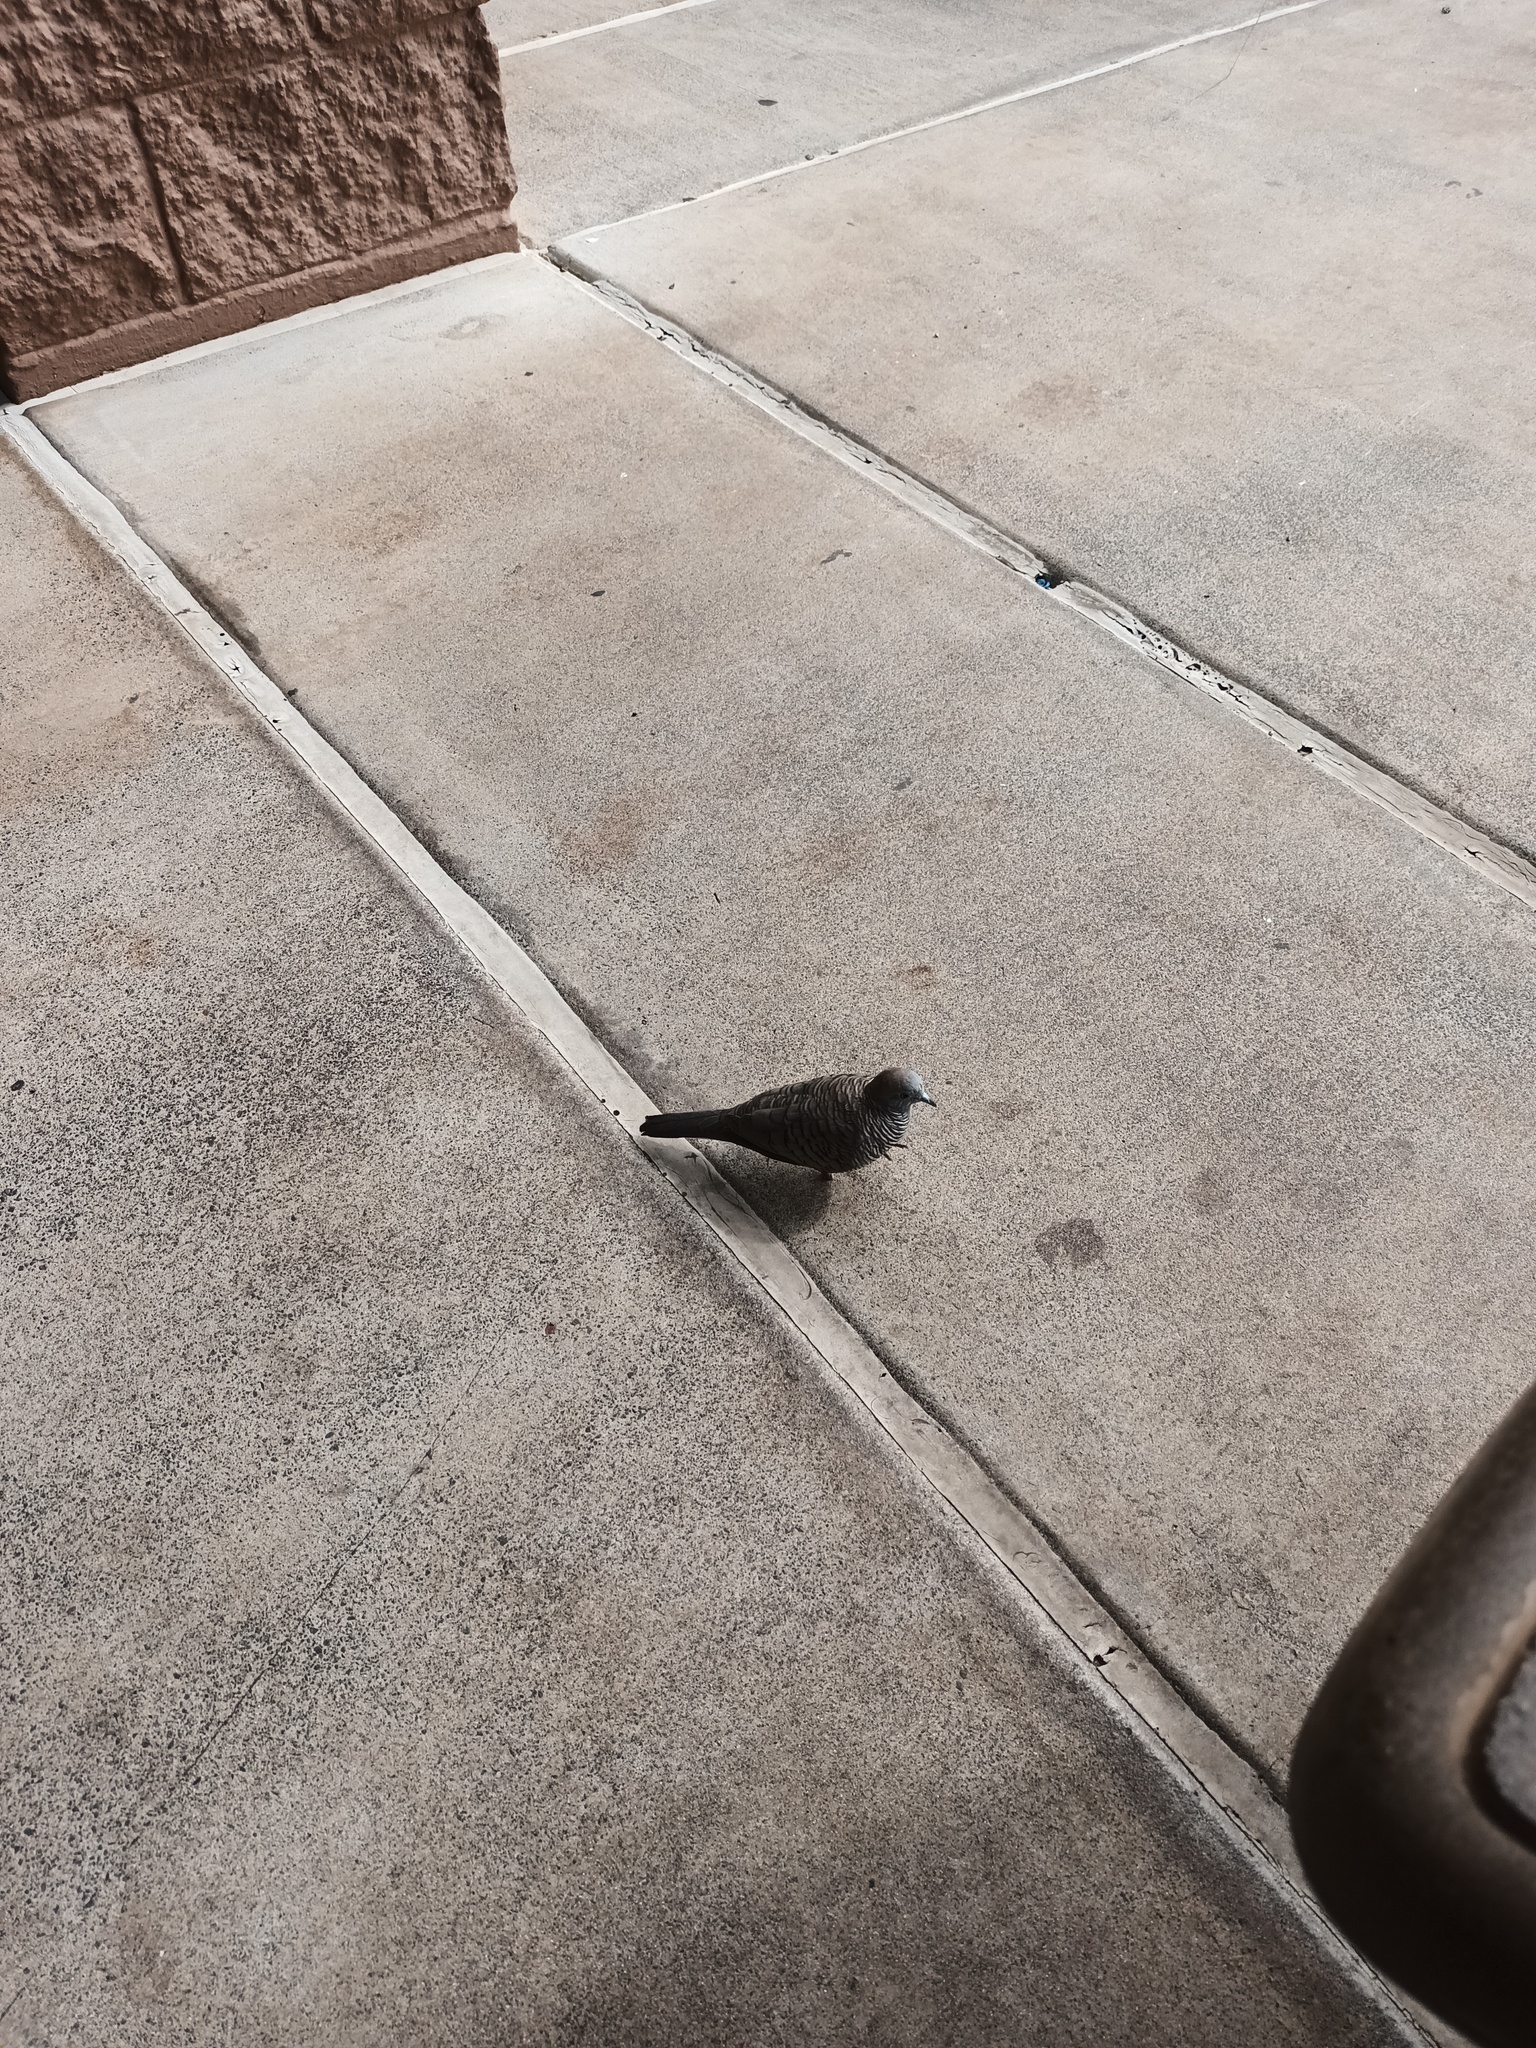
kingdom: Animalia
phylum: Chordata
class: Aves
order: Columbiformes
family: Columbidae
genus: Geopelia
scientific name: Geopelia striata
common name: Zebra dove
